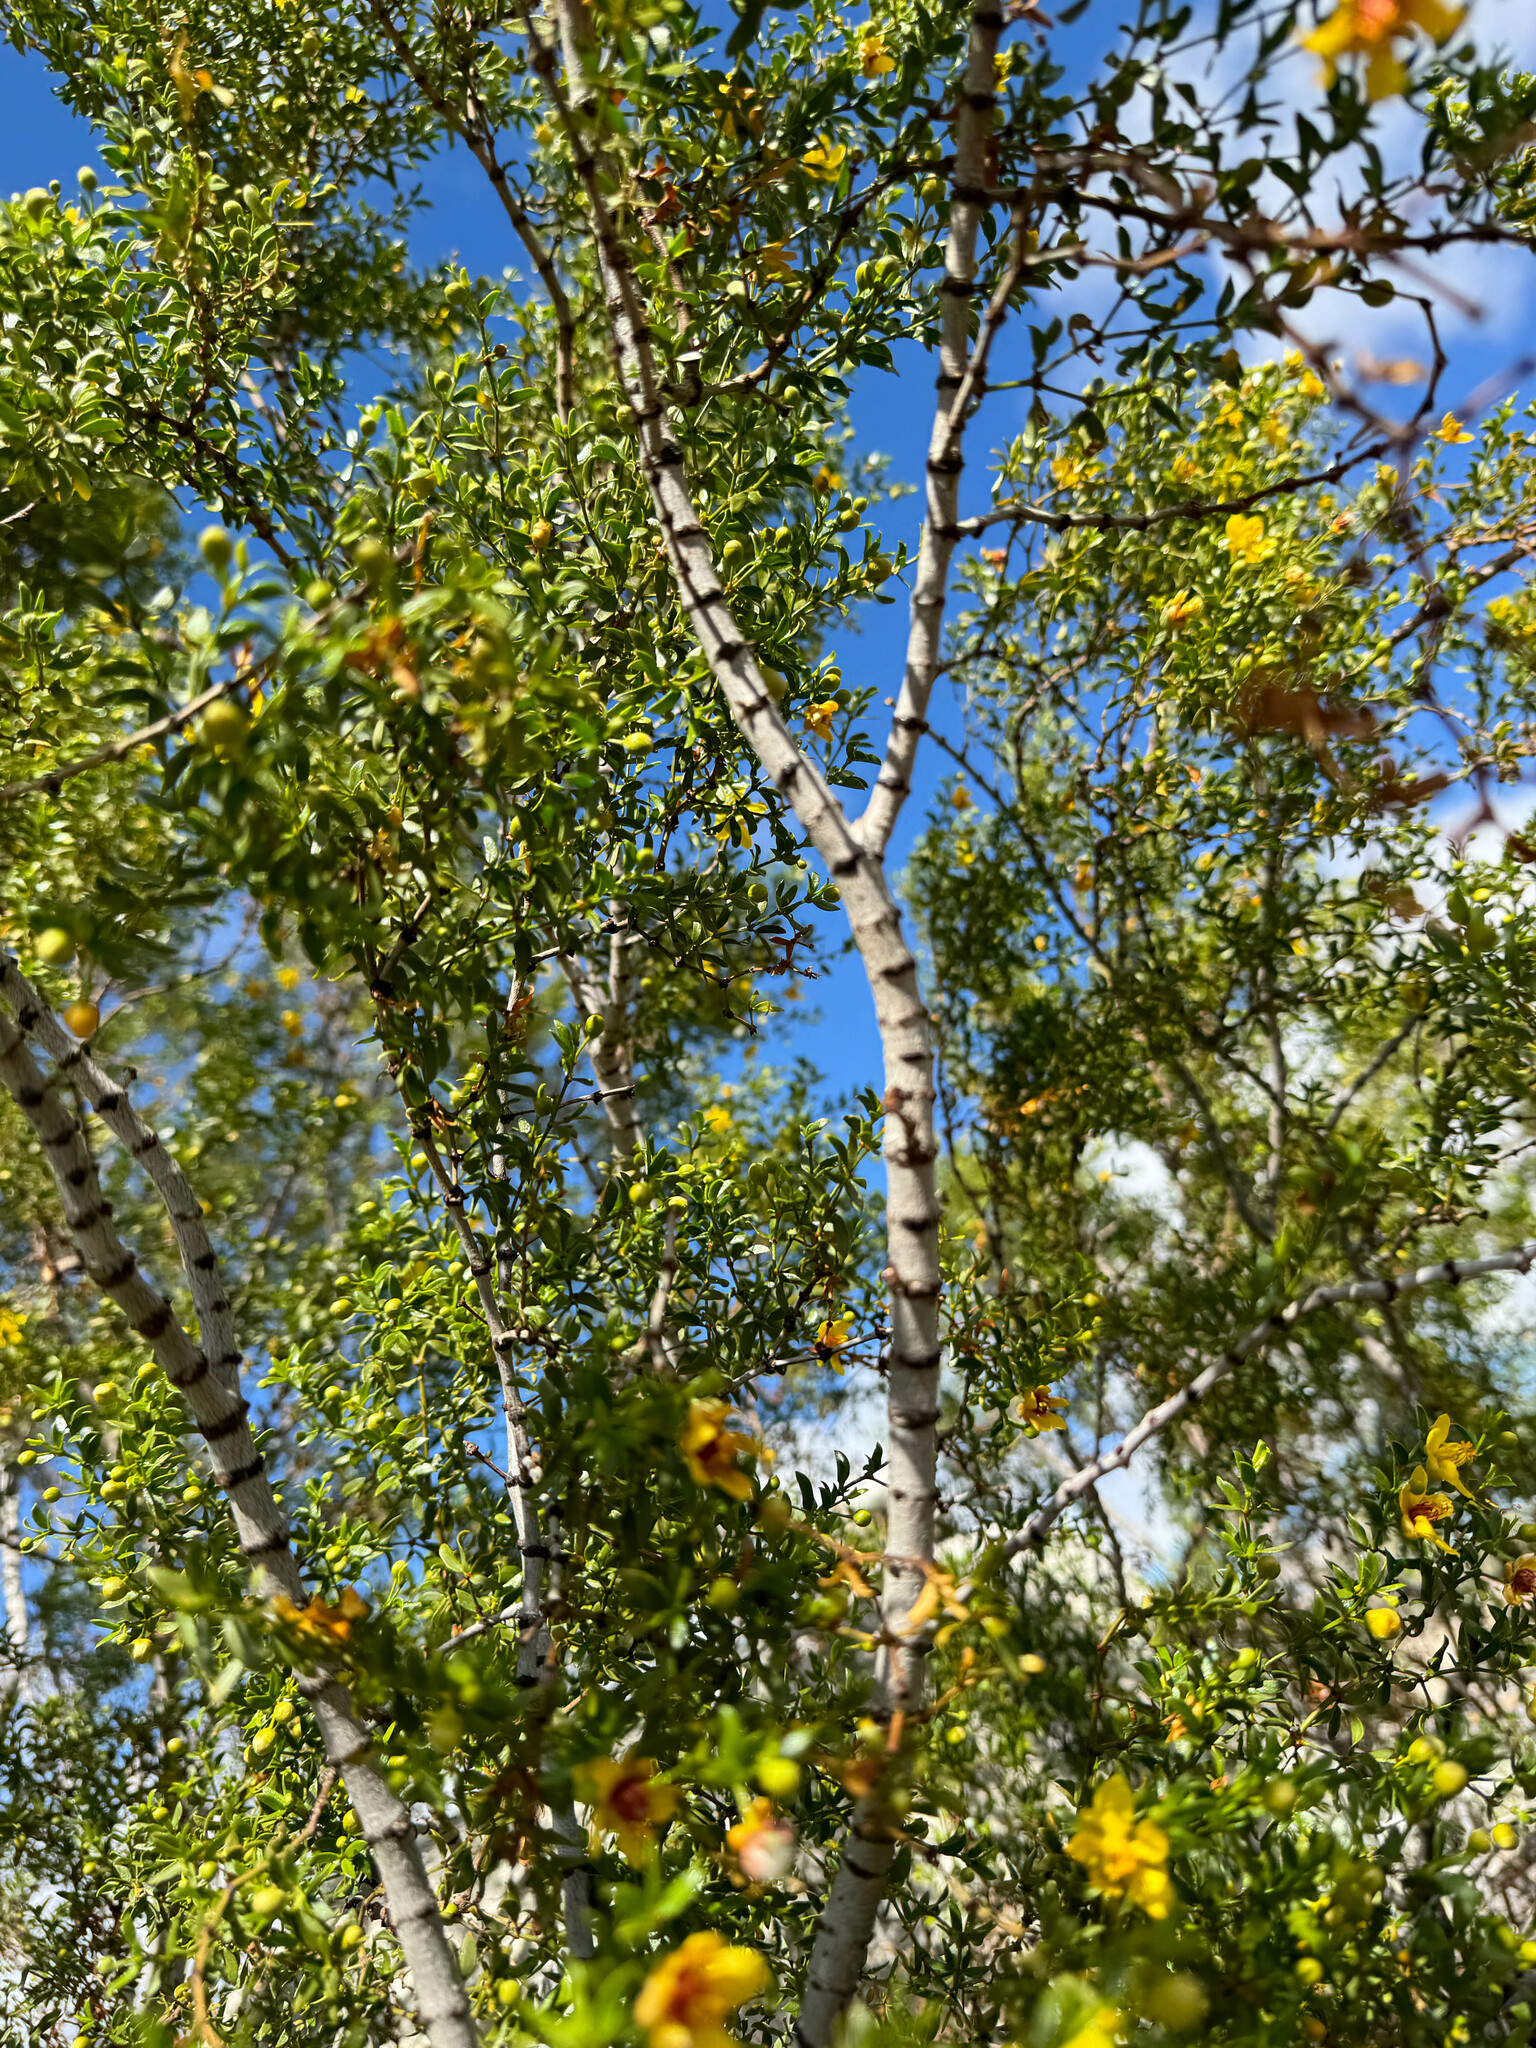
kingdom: Plantae
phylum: Tracheophyta
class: Magnoliopsida
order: Zygophyllales
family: Zygophyllaceae
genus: Larrea
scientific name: Larrea tridentata
